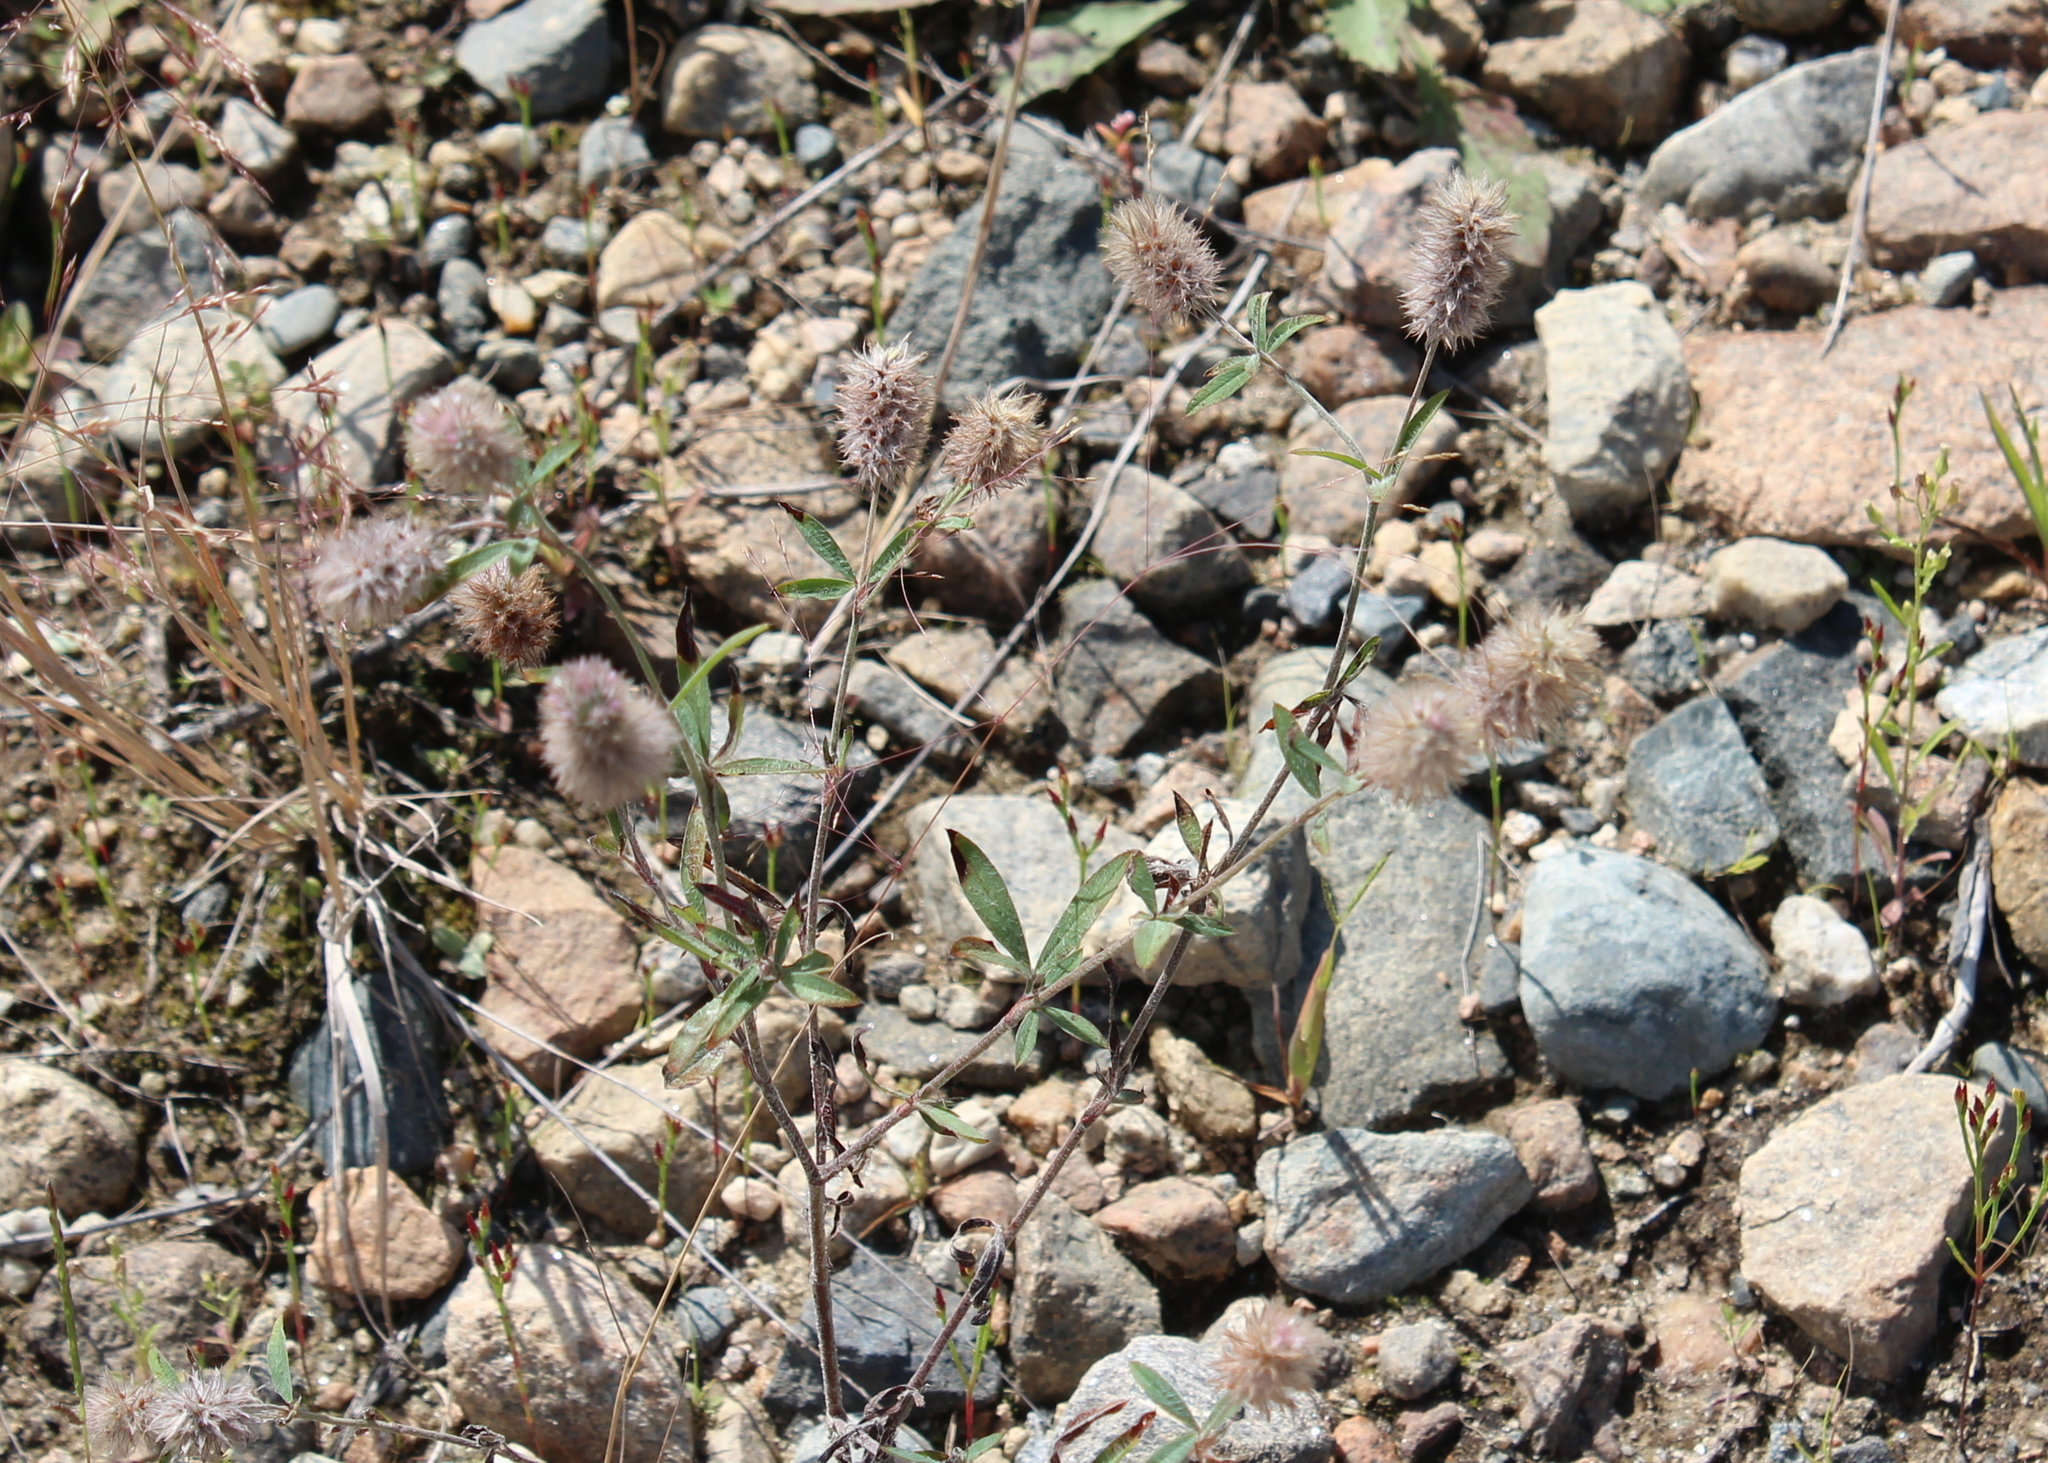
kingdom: Plantae
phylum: Tracheophyta
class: Magnoliopsida
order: Fabales
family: Fabaceae
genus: Trifolium
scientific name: Trifolium arvense
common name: Hare's-foot clover
